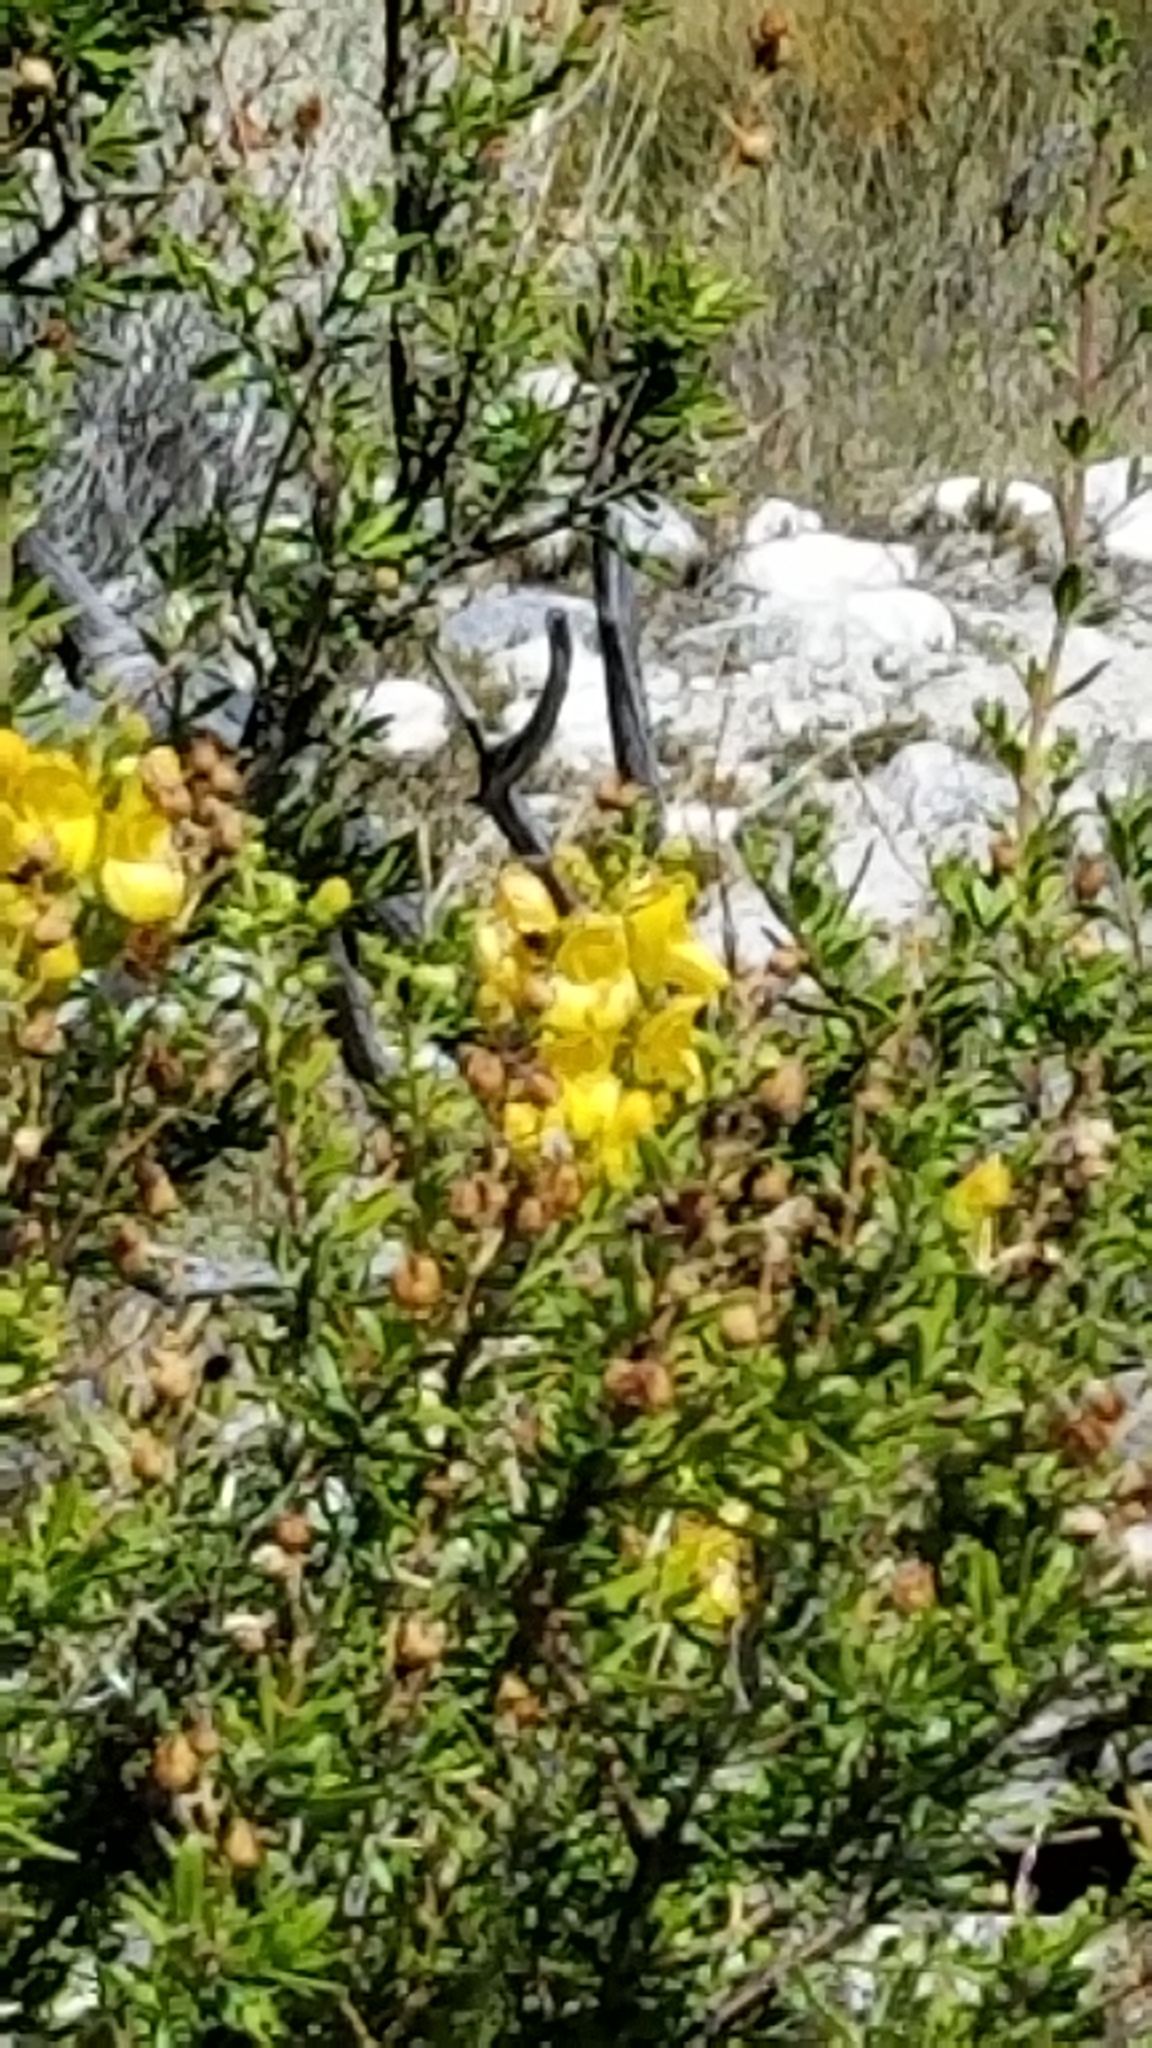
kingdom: Plantae
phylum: Tracheophyta
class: Magnoliopsida
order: Lamiales
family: Plantaginaceae
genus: Keckiella
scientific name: Keckiella antirrhinoides
